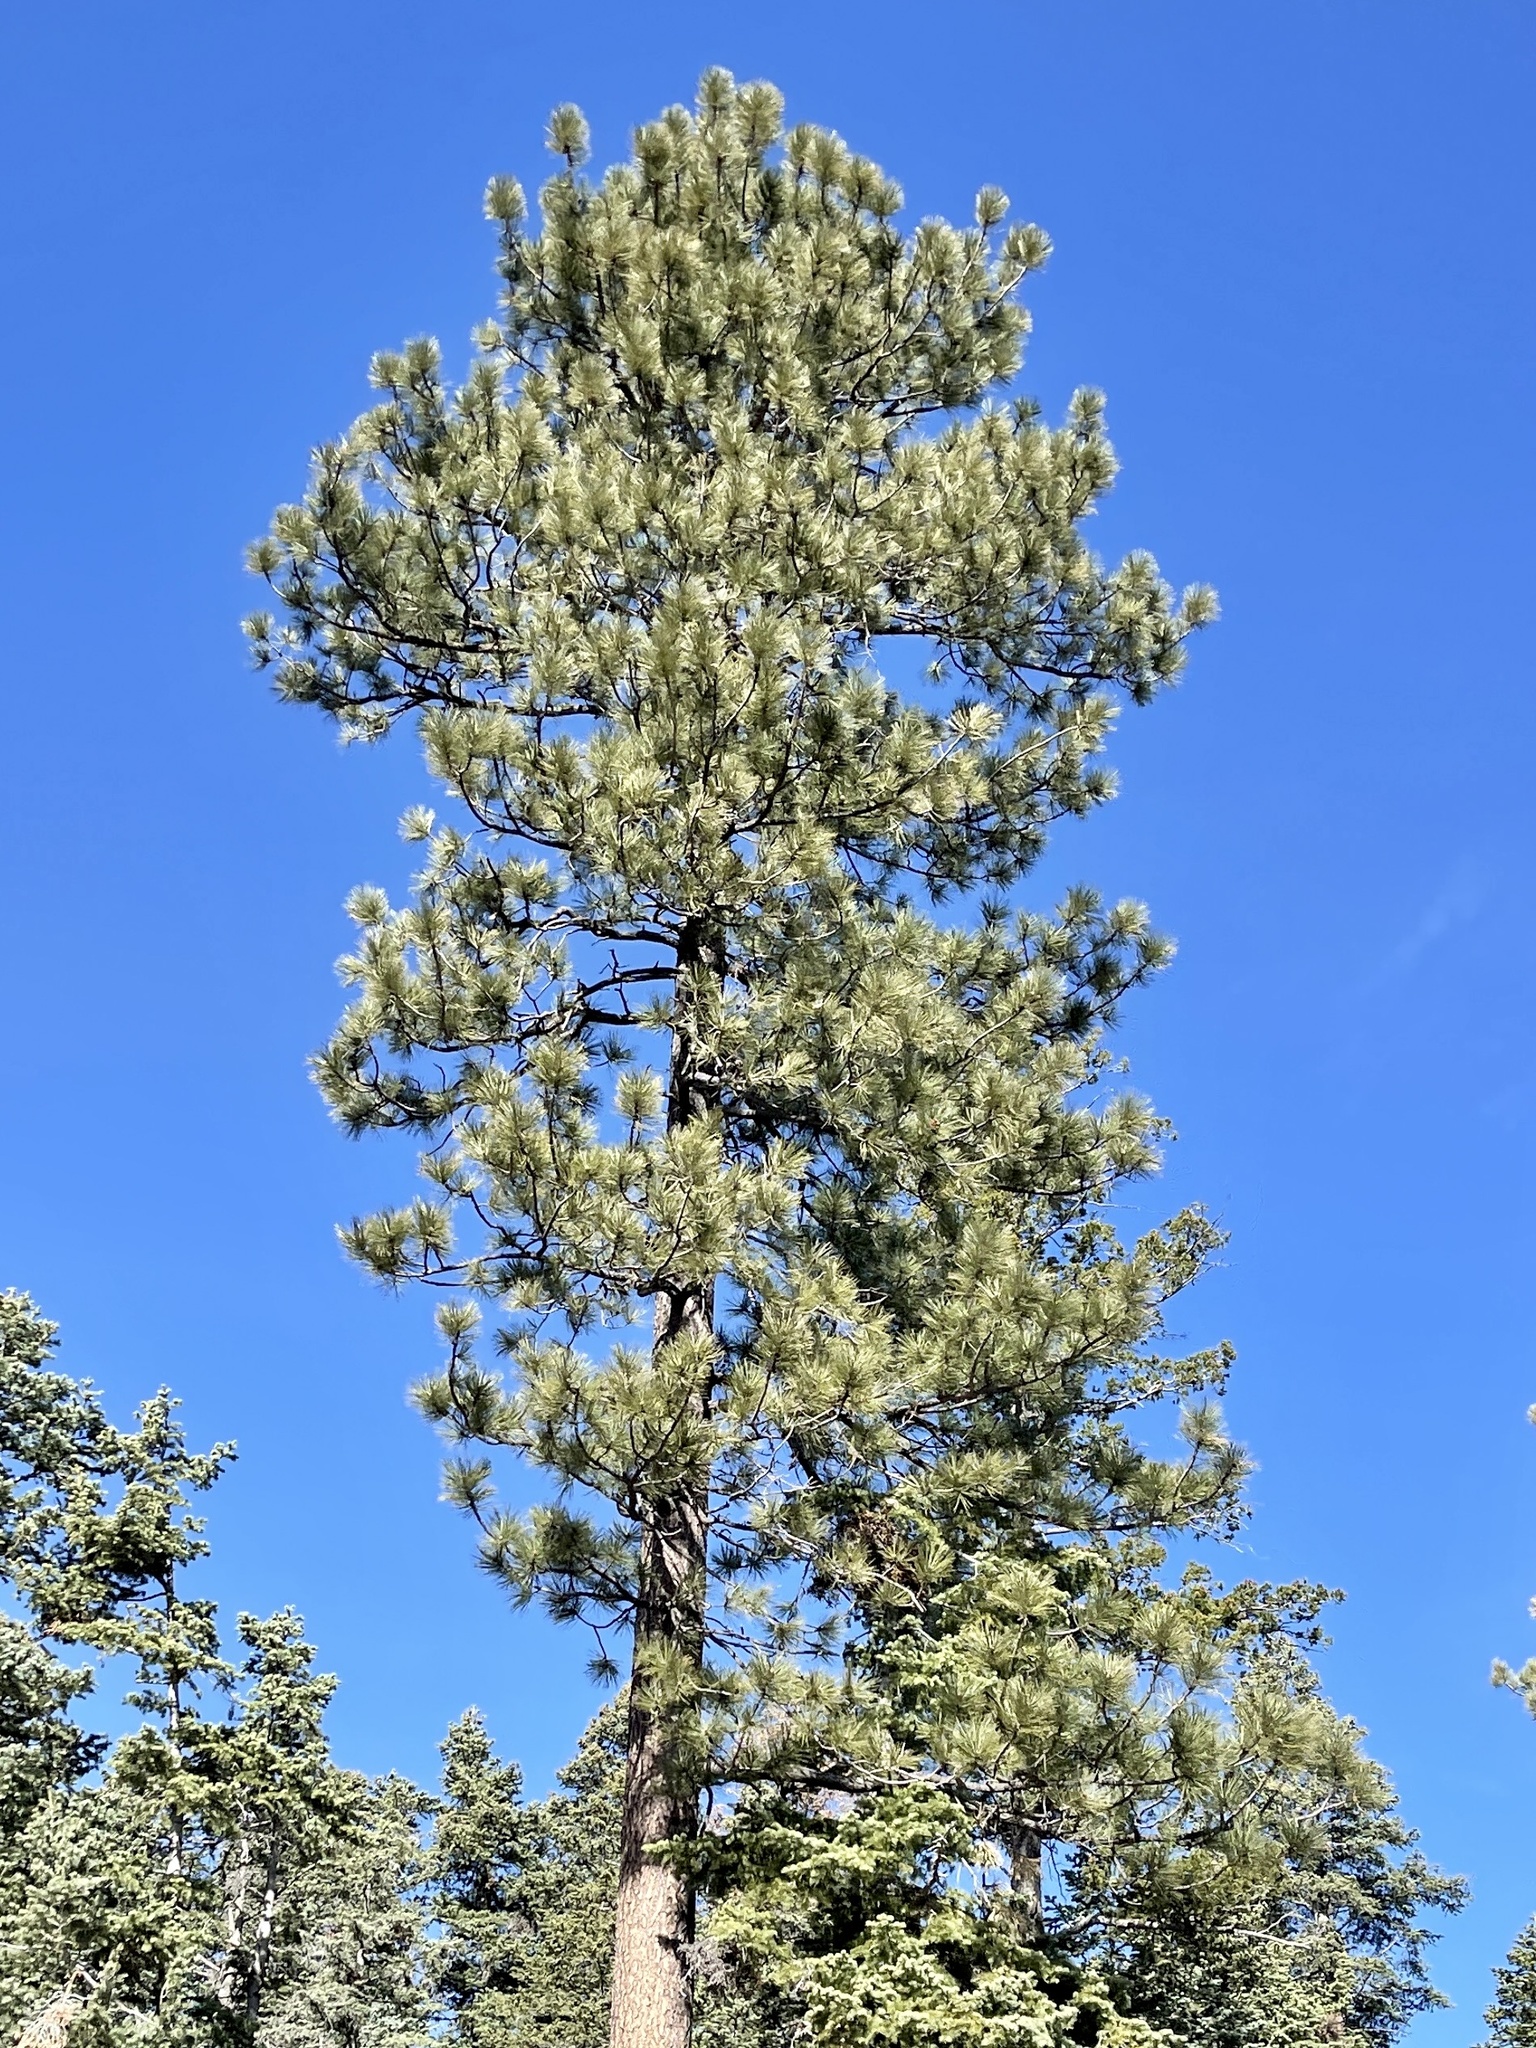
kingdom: Plantae
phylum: Tracheophyta
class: Pinopsida
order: Pinales
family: Pinaceae
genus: Pinus
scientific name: Pinus ponderosa
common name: Western yellow-pine
